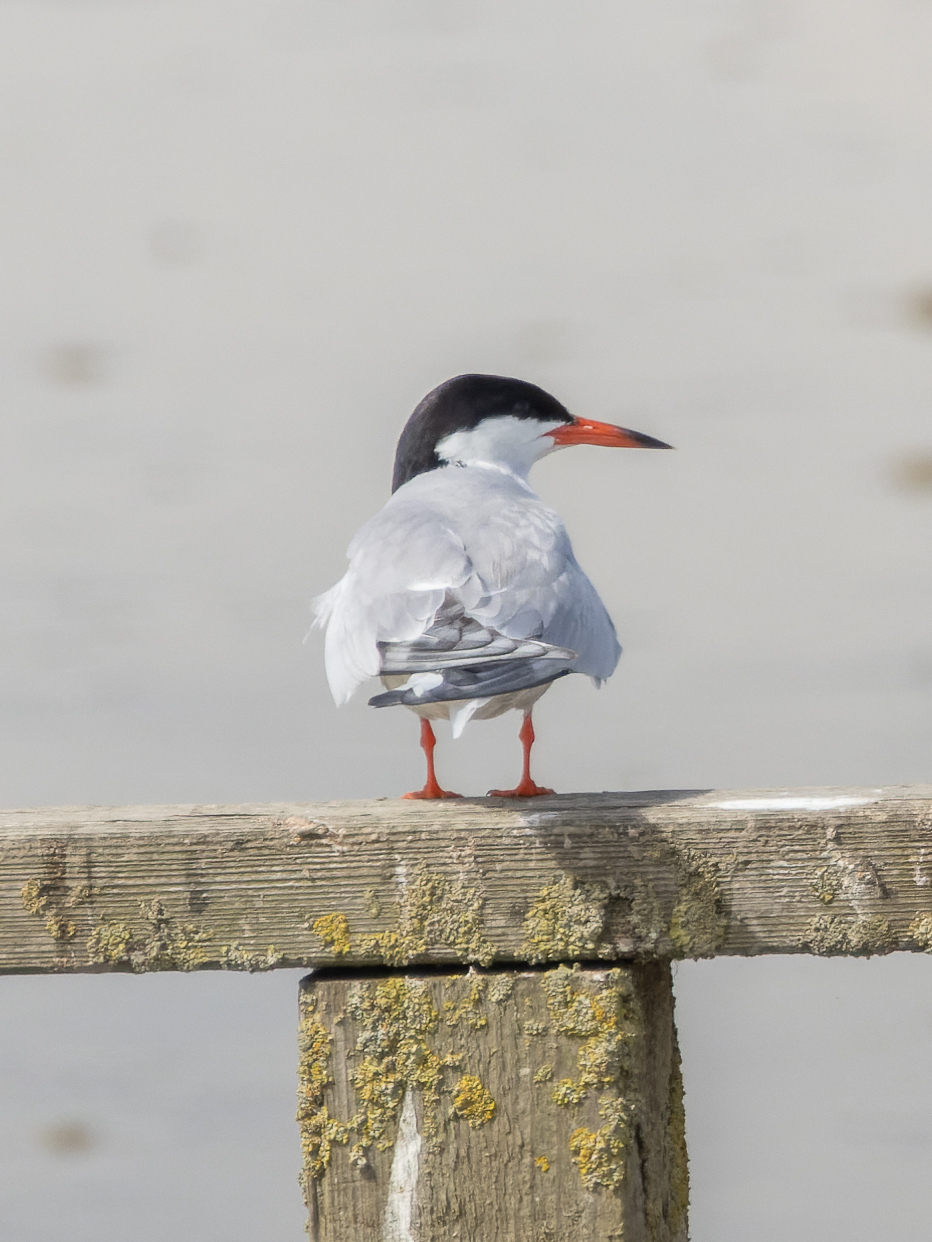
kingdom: Animalia
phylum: Chordata
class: Aves
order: Charadriiformes
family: Laridae
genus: Sterna
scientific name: Sterna hirundo
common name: Common tern
